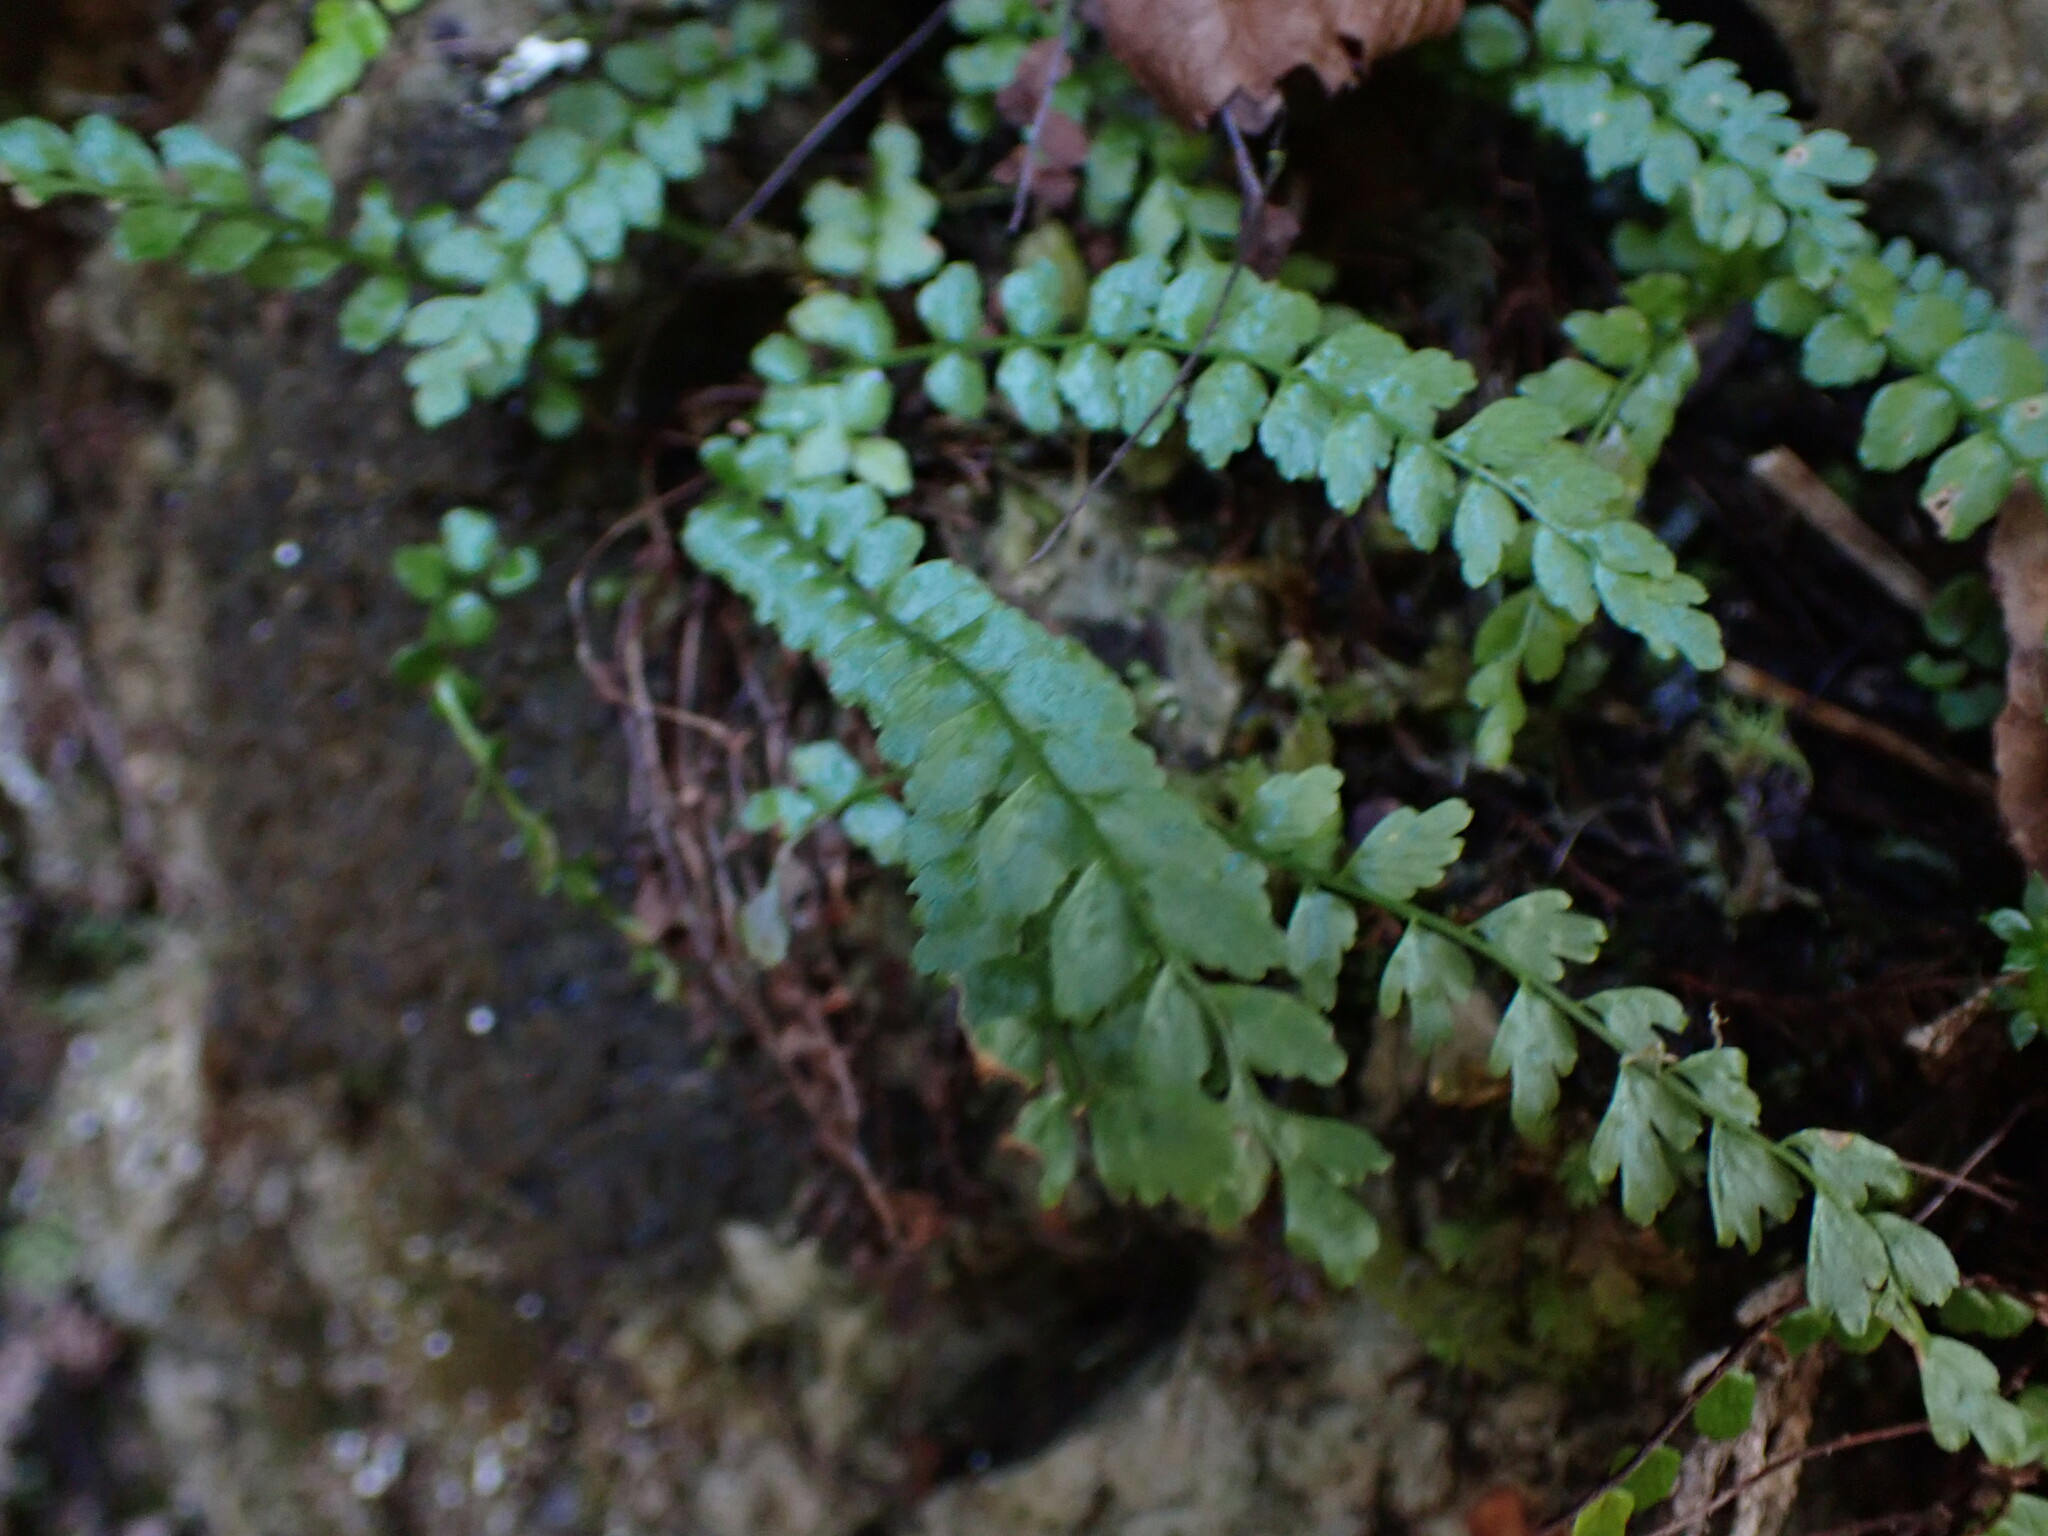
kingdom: Plantae
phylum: Tracheophyta
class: Polypodiopsida
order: Polypodiales
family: Aspleniaceae
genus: Asplenium
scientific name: Asplenium viride
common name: Green spleenwort
